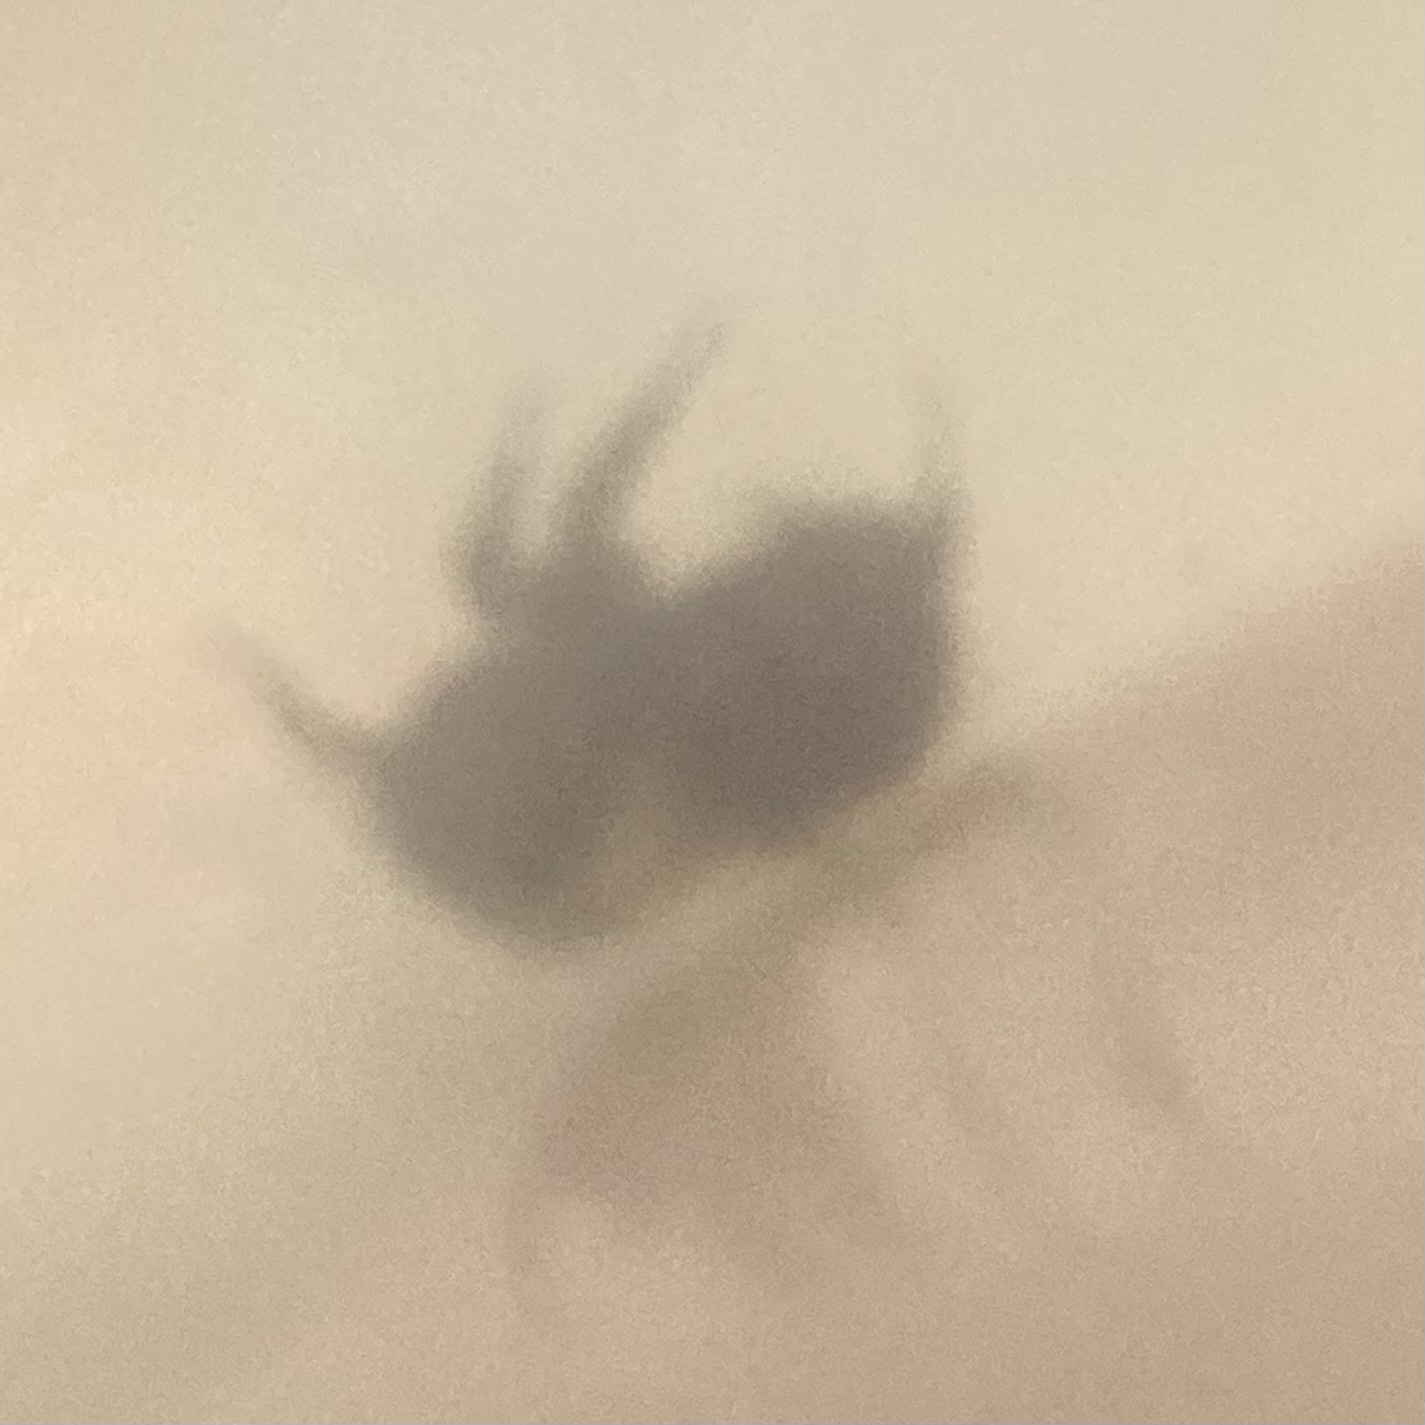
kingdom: Animalia
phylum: Arthropoda
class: Insecta
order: Hymenoptera
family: Apidae
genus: Bombus
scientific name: Bombus ternarius
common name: Tri-colored bumble bee
